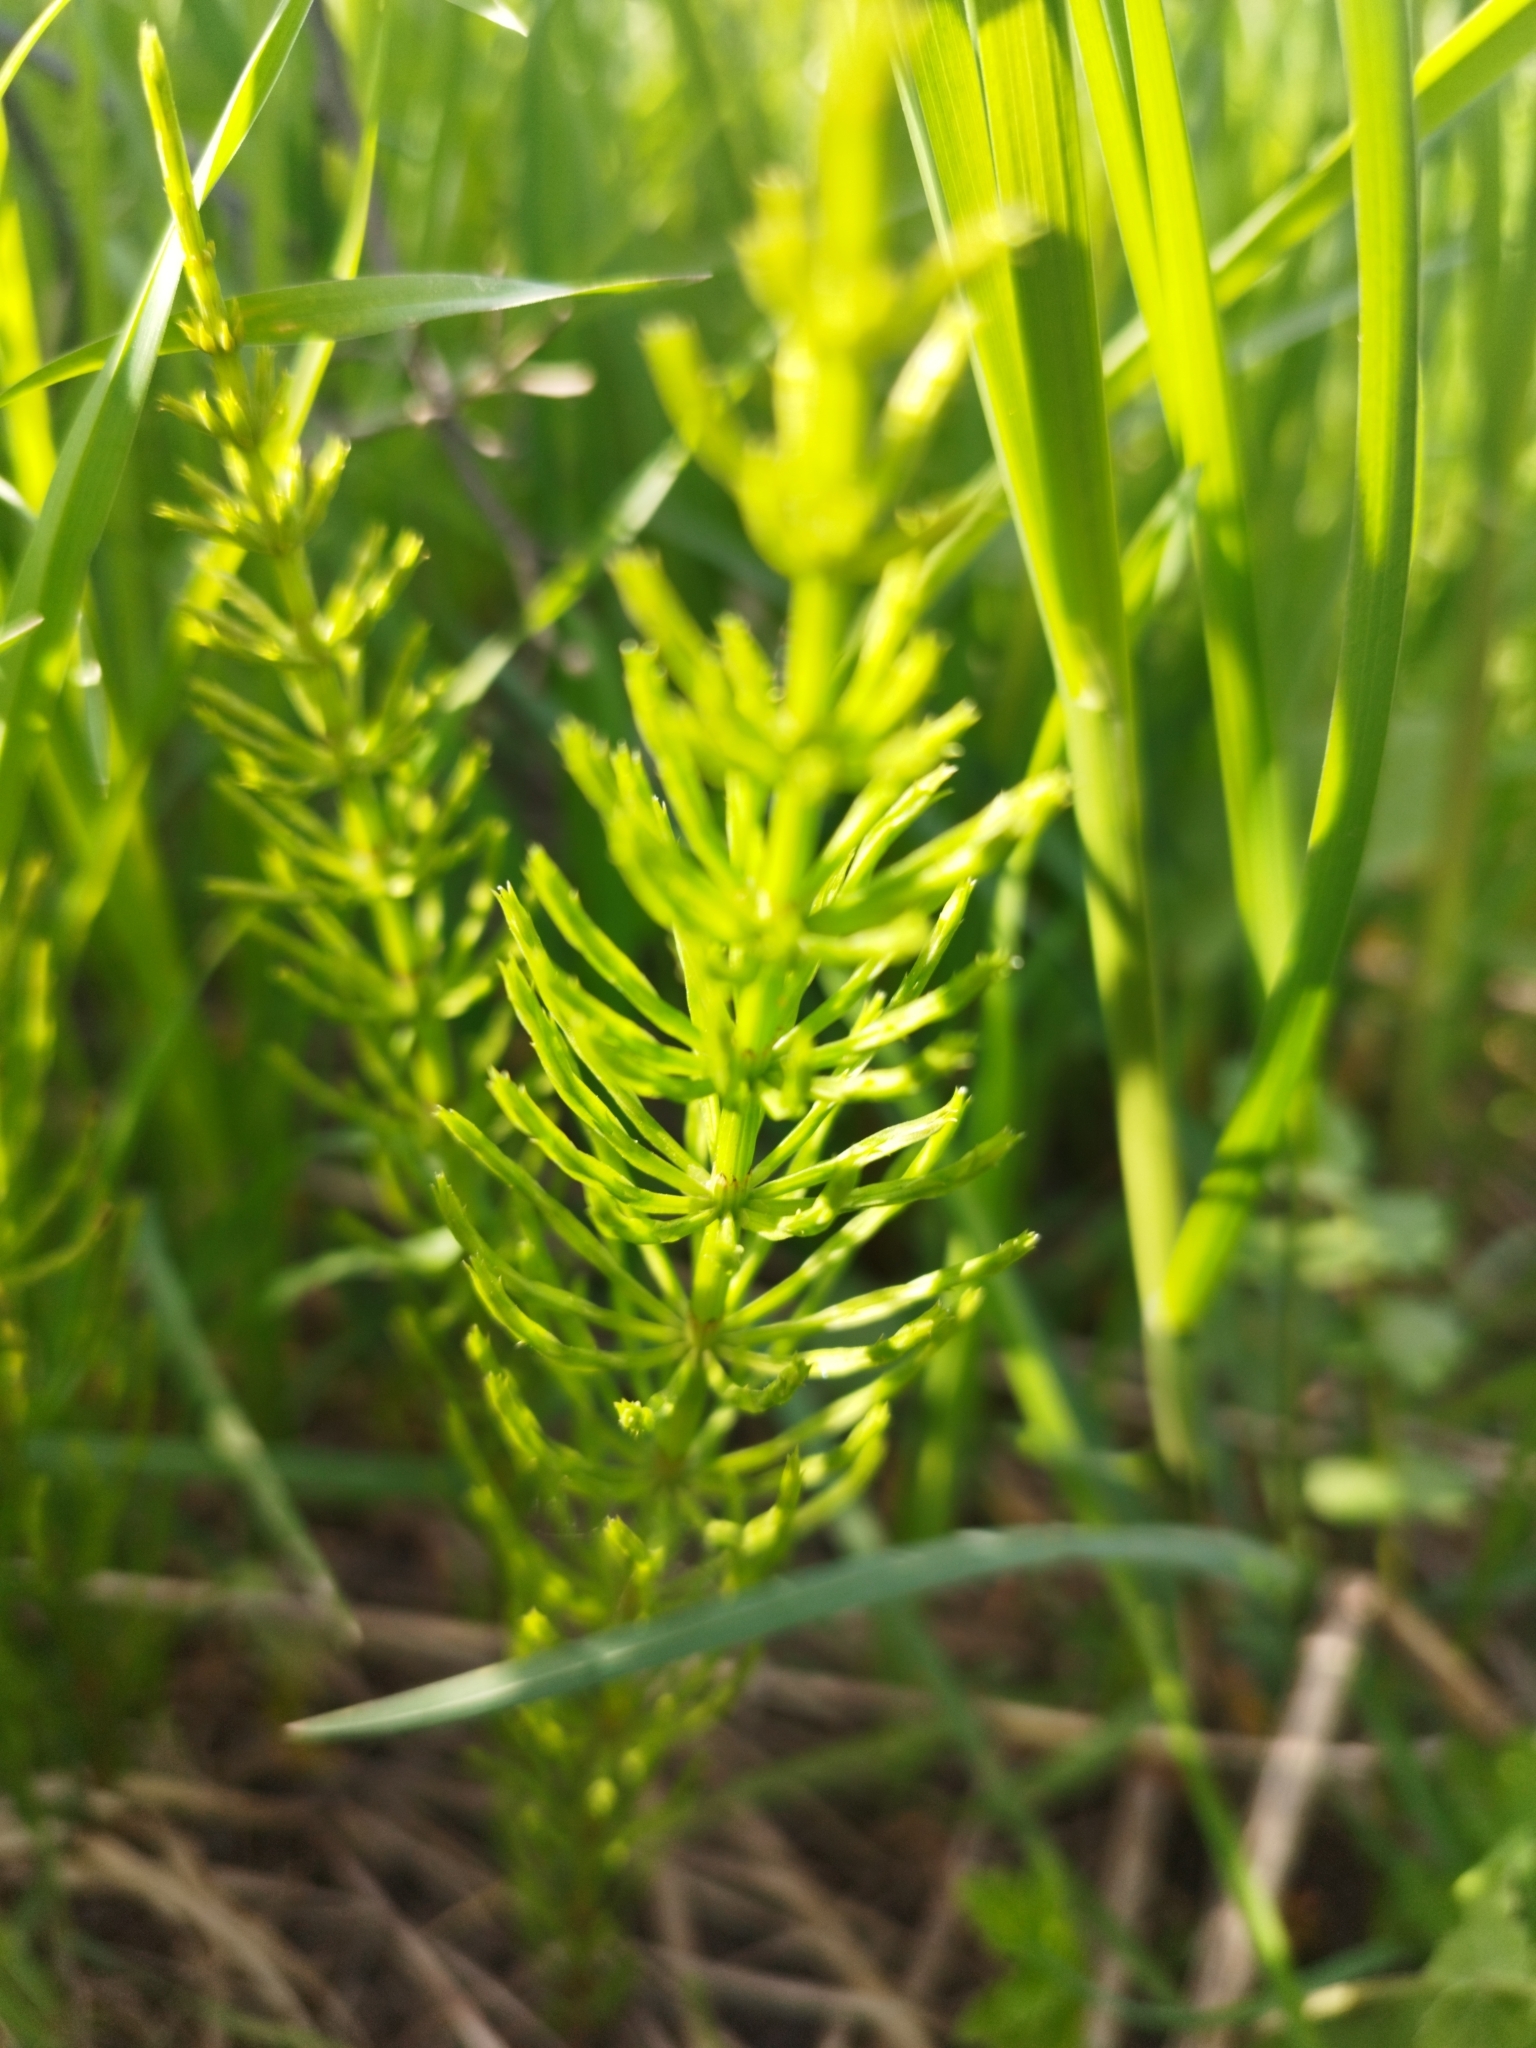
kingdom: Plantae
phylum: Tracheophyta
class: Polypodiopsida
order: Equisetales
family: Equisetaceae
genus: Equisetum
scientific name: Equisetum arvense
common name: Field horsetail
